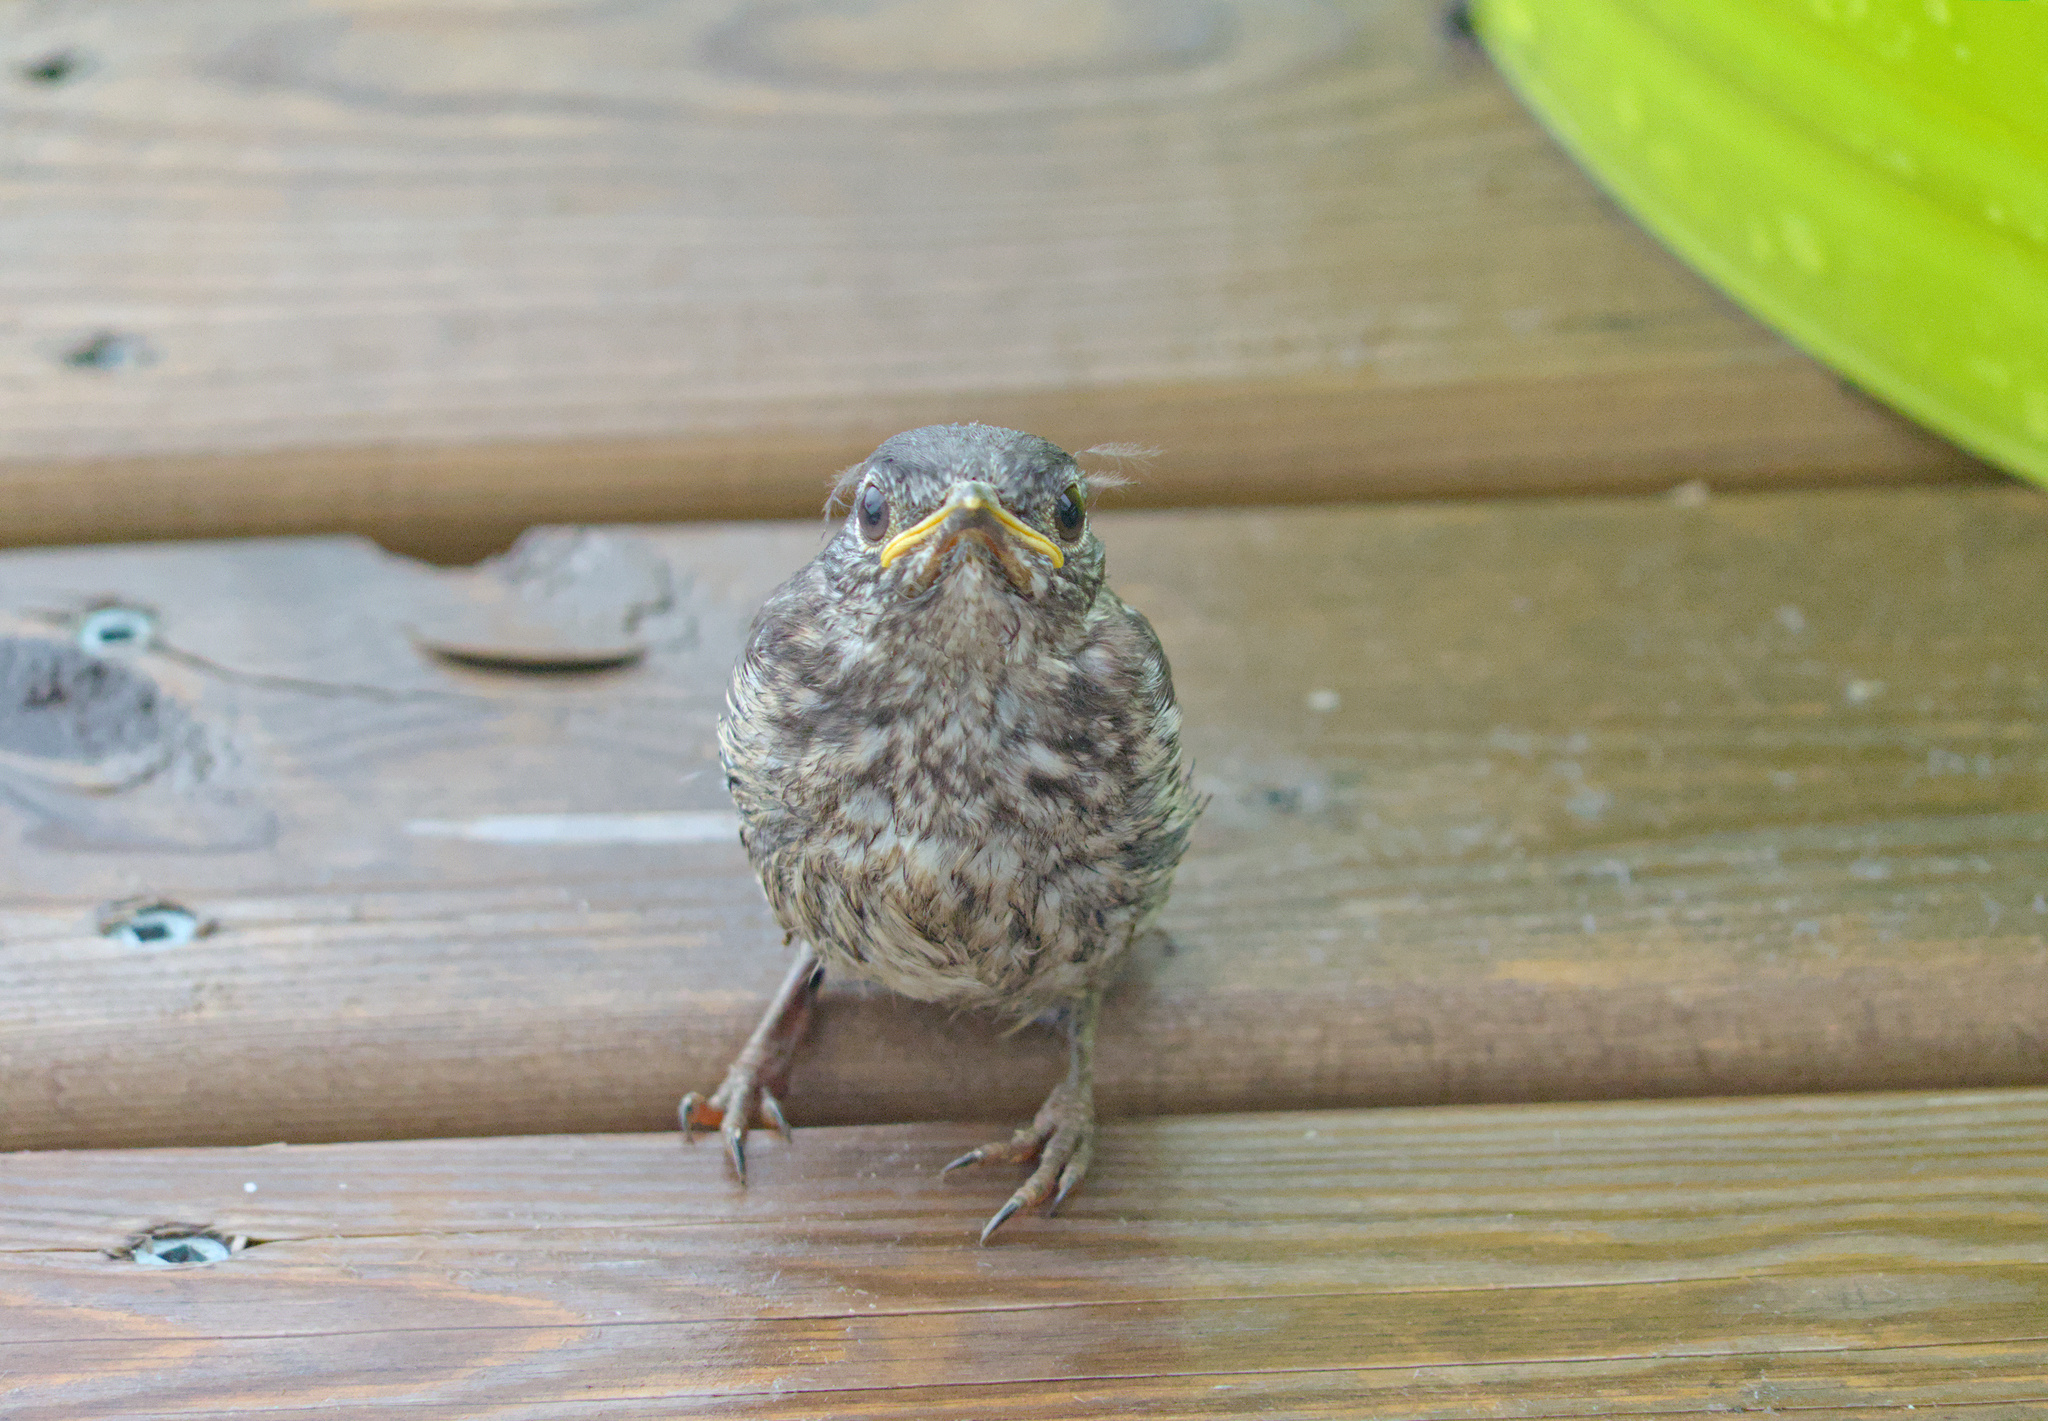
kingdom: Animalia
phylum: Chordata
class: Aves
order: Passeriformes
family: Turdidae
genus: Sialia
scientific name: Sialia sialis
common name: Eastern bluebird
